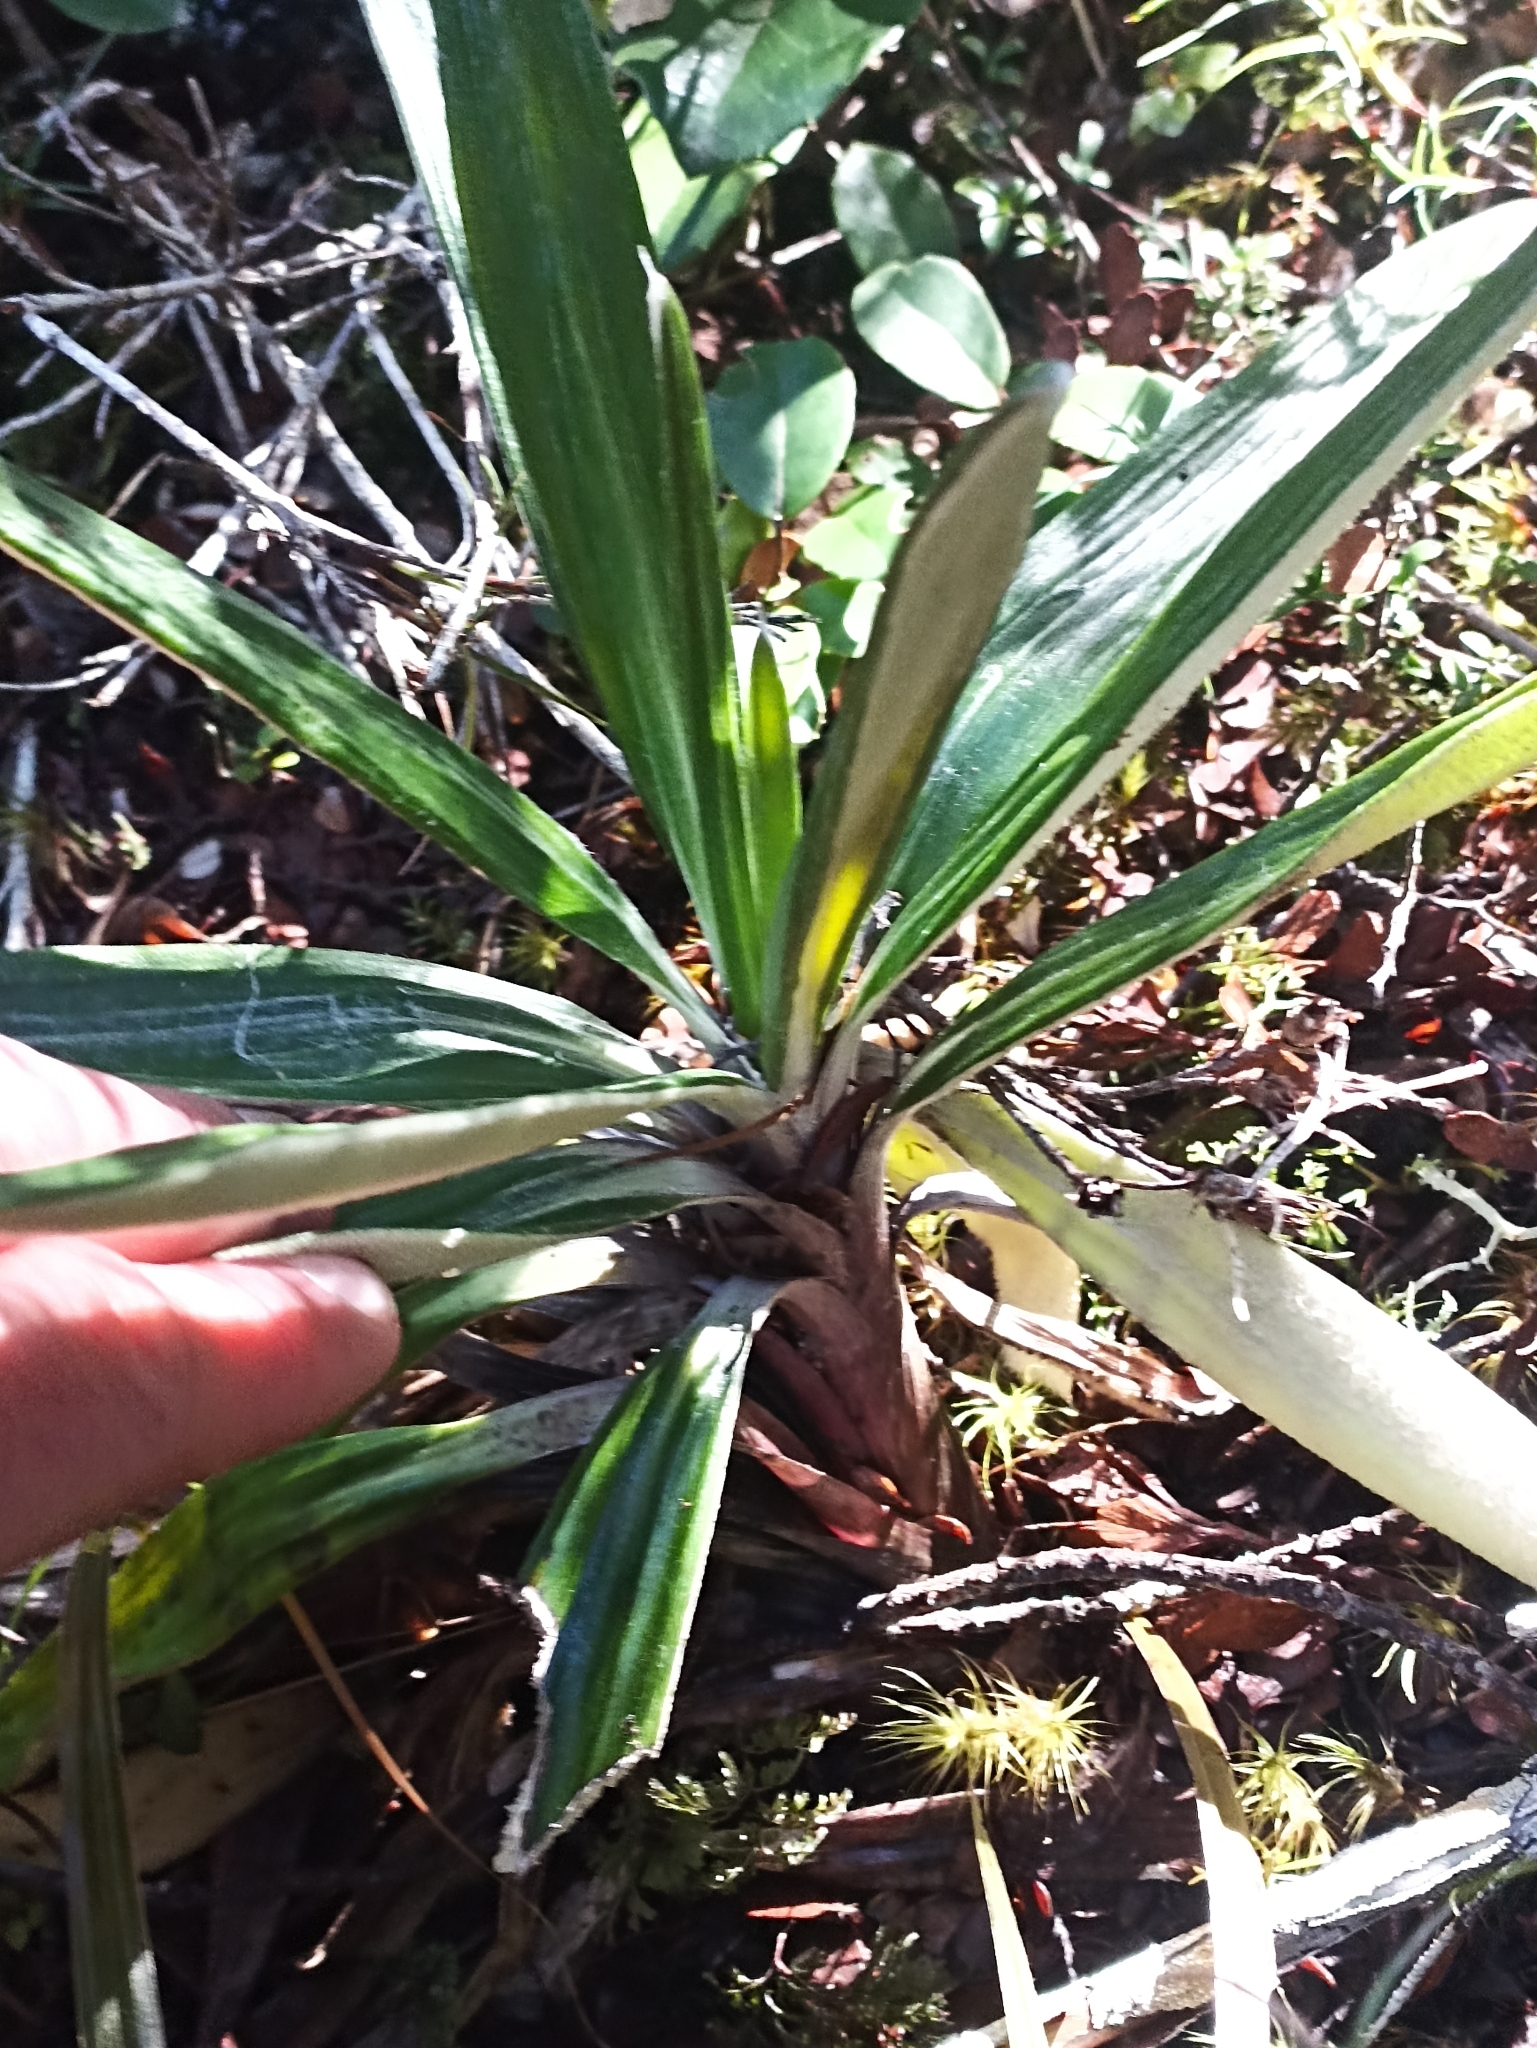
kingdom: Plantae
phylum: Tracheophyta
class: Magnoliopsida
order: Asterales
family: Asteraceae
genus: Celmisia
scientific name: Celmisia spectabilis
